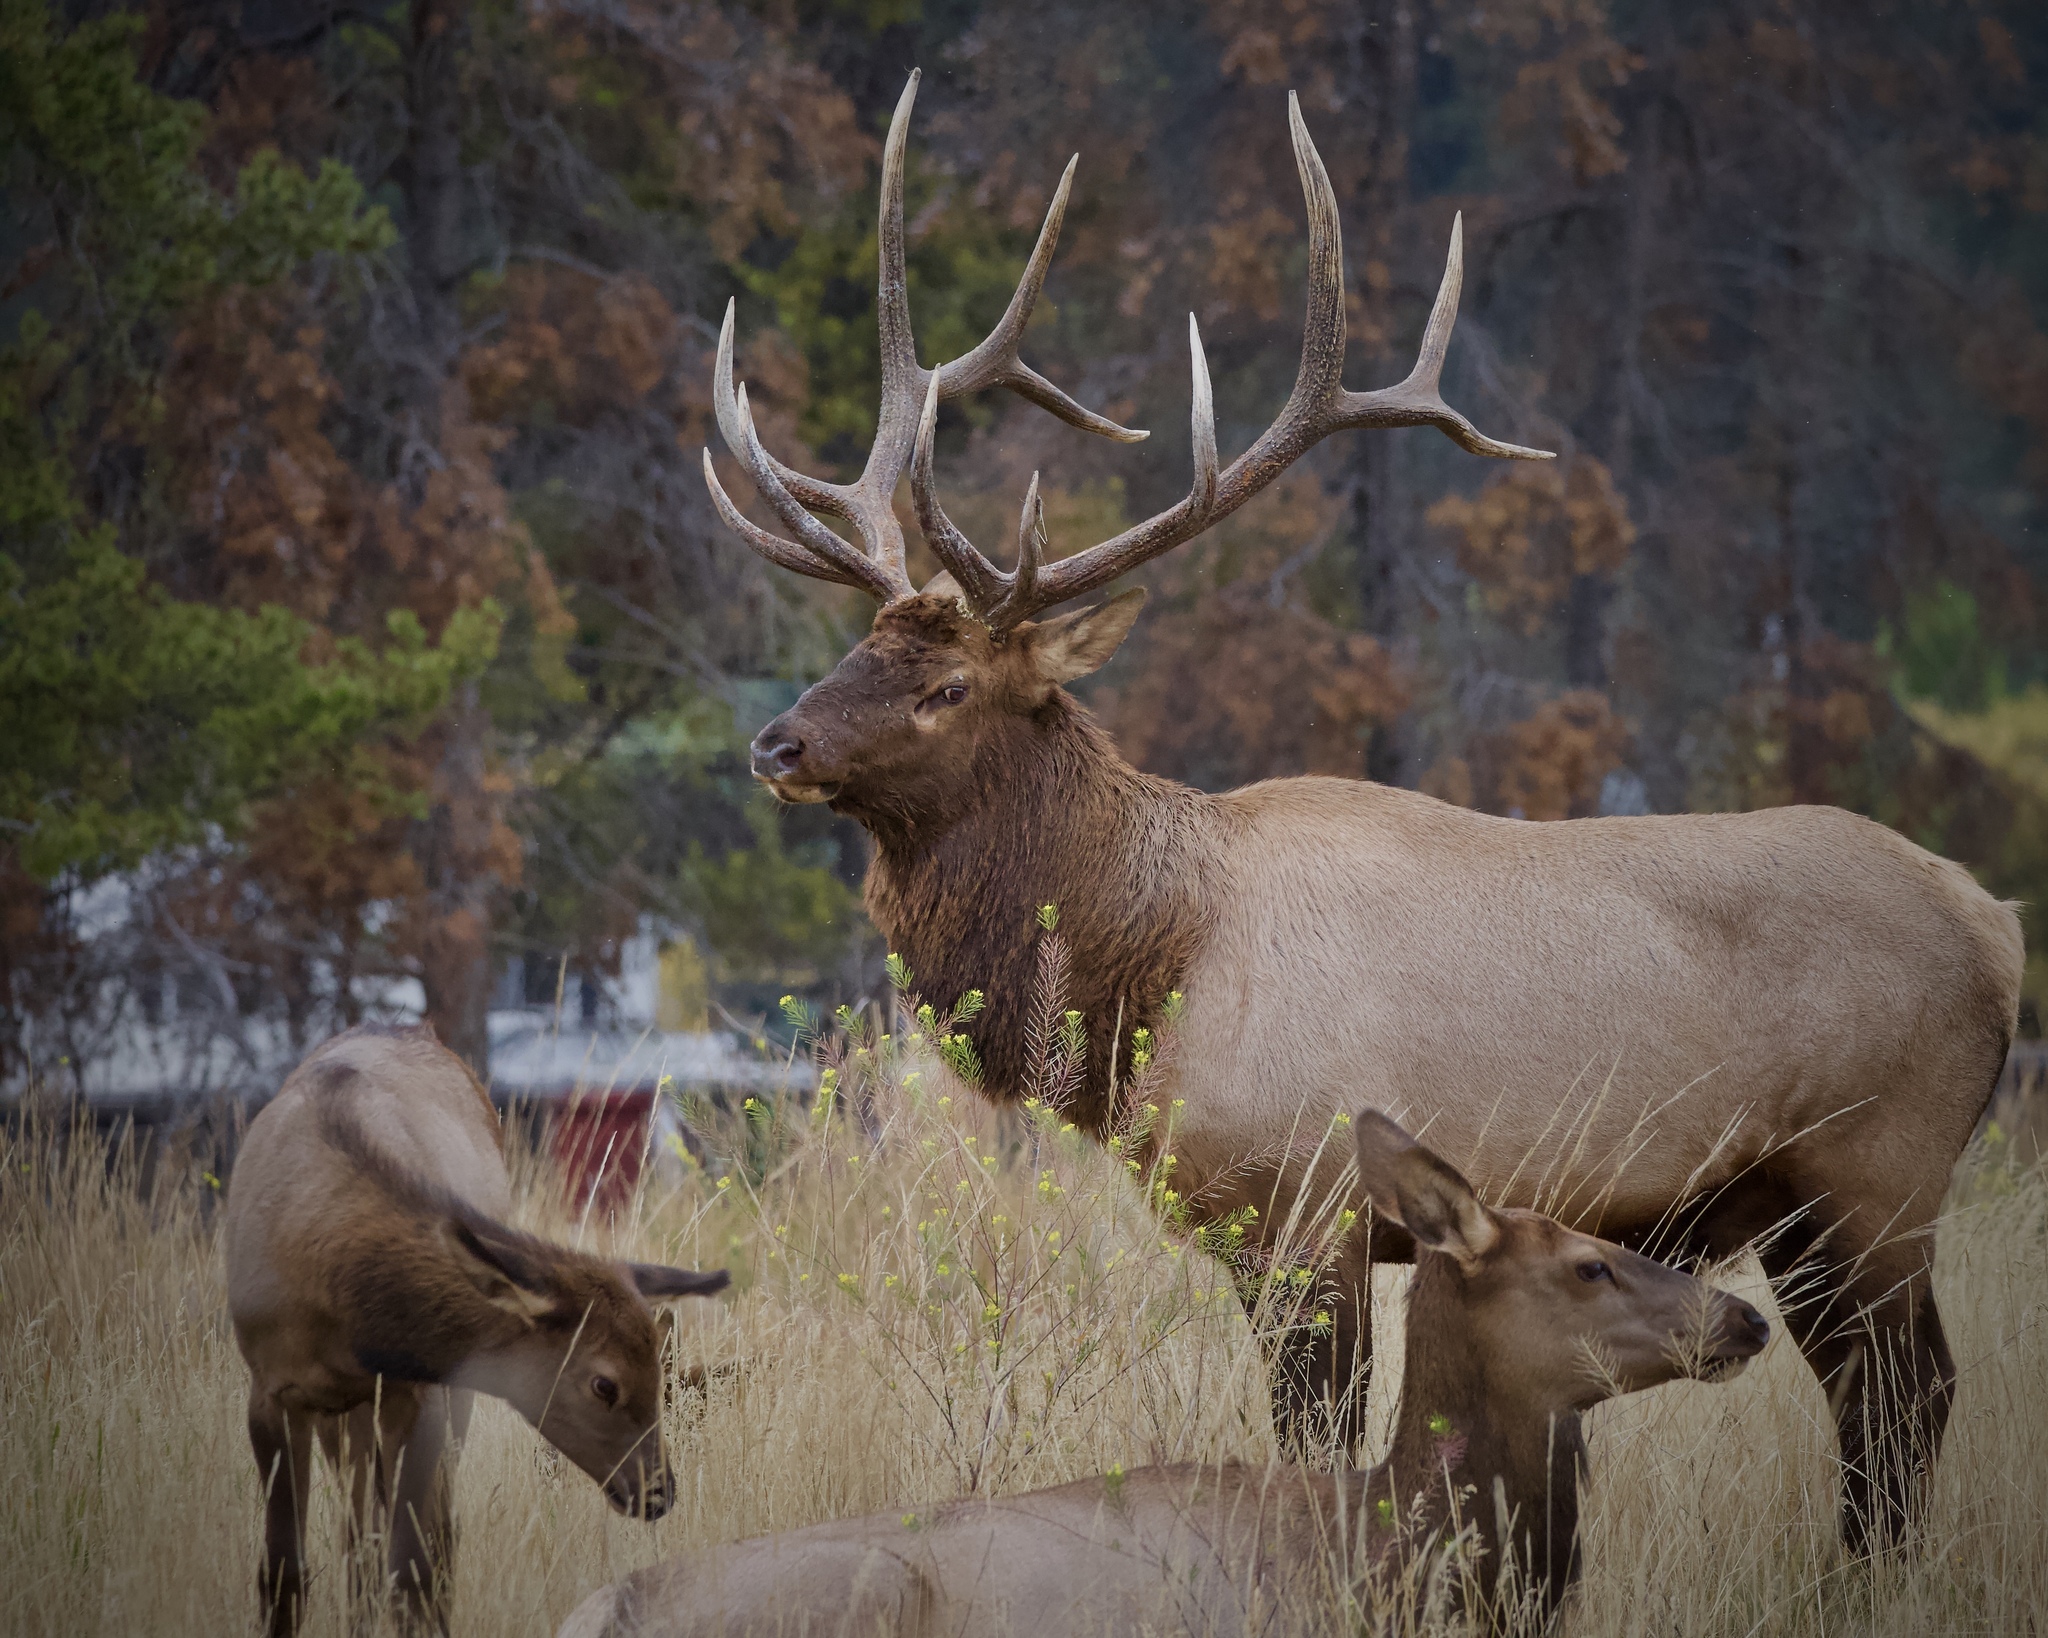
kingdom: Animalia
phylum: Chordata
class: Mammalia
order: Artiodactyla
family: Cervidae
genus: Cervus
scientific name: Cervus elaphus
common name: Red deer
